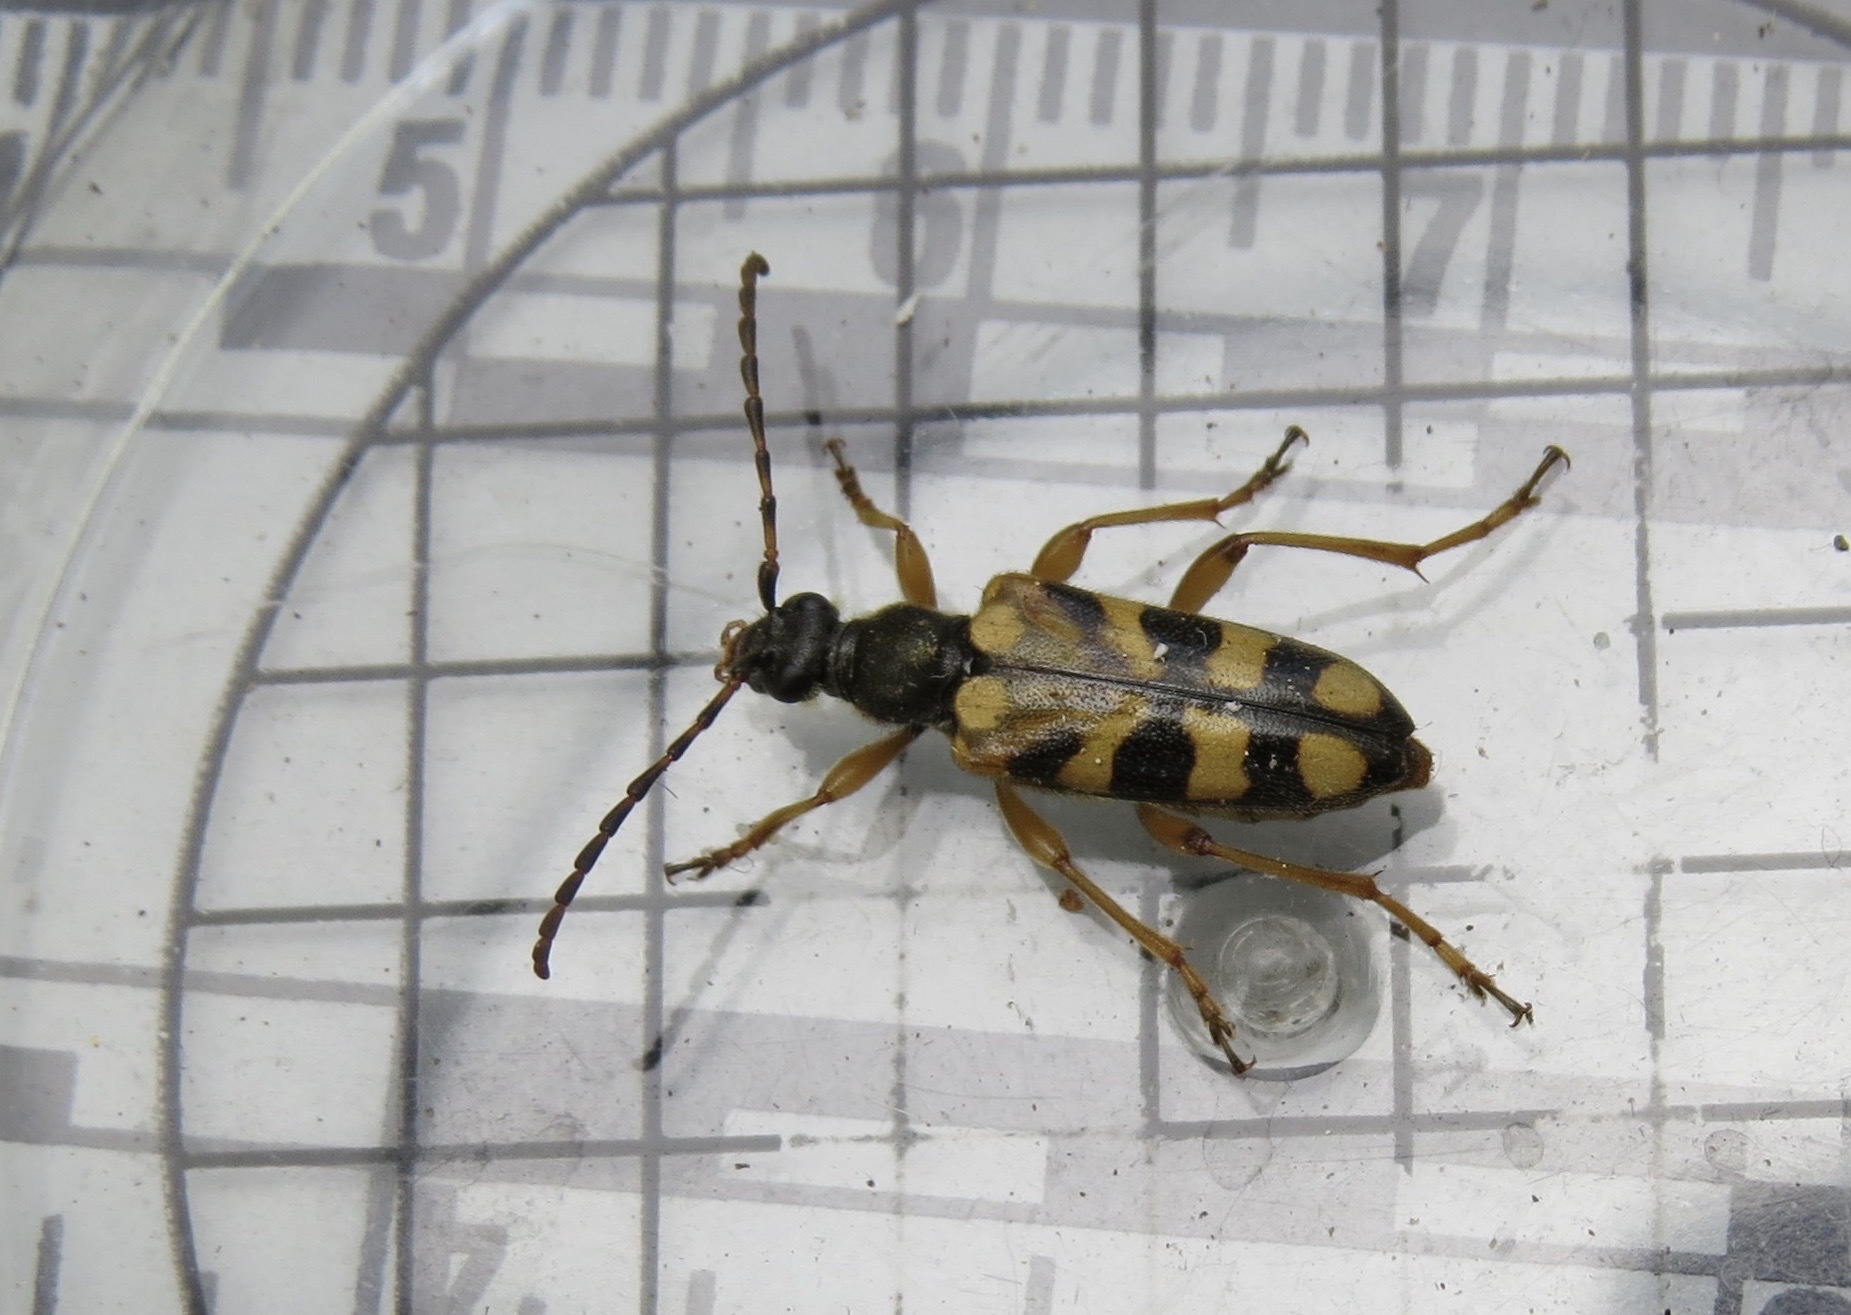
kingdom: Animalia
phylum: Arthropoda
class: Insecta
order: Coleoptera
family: Cerambycidae
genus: Xestoleptura
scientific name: Xestoleptura crassipes
